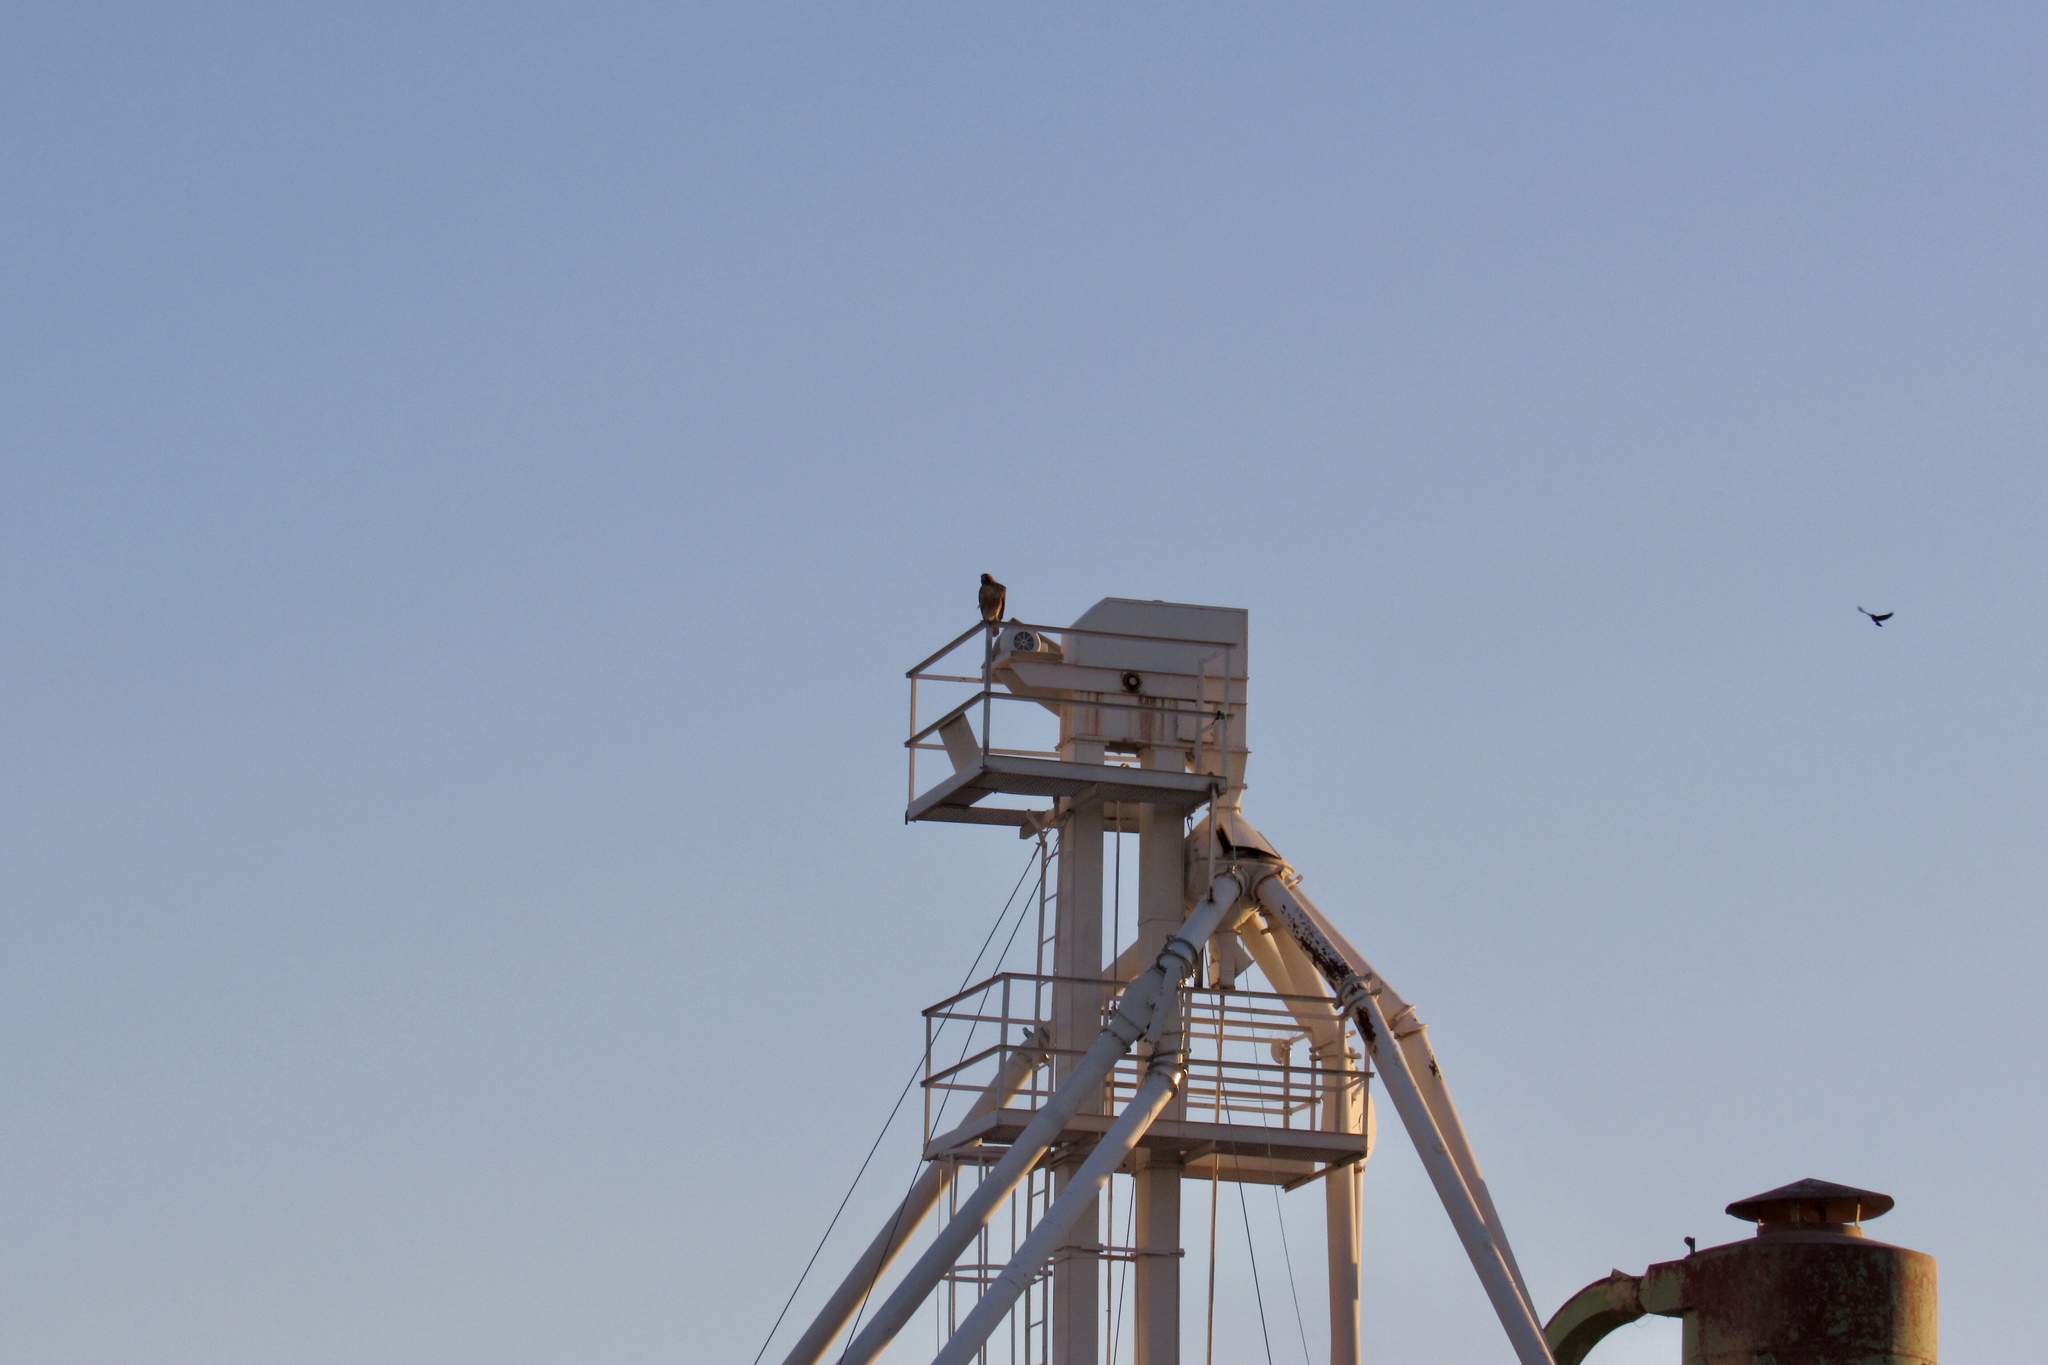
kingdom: Animalia
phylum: Chordata
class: Aves
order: Accipitriformes
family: Accipitridae
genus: Buteo
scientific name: Buteo jamaicensis
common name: Red-tailed hawk
